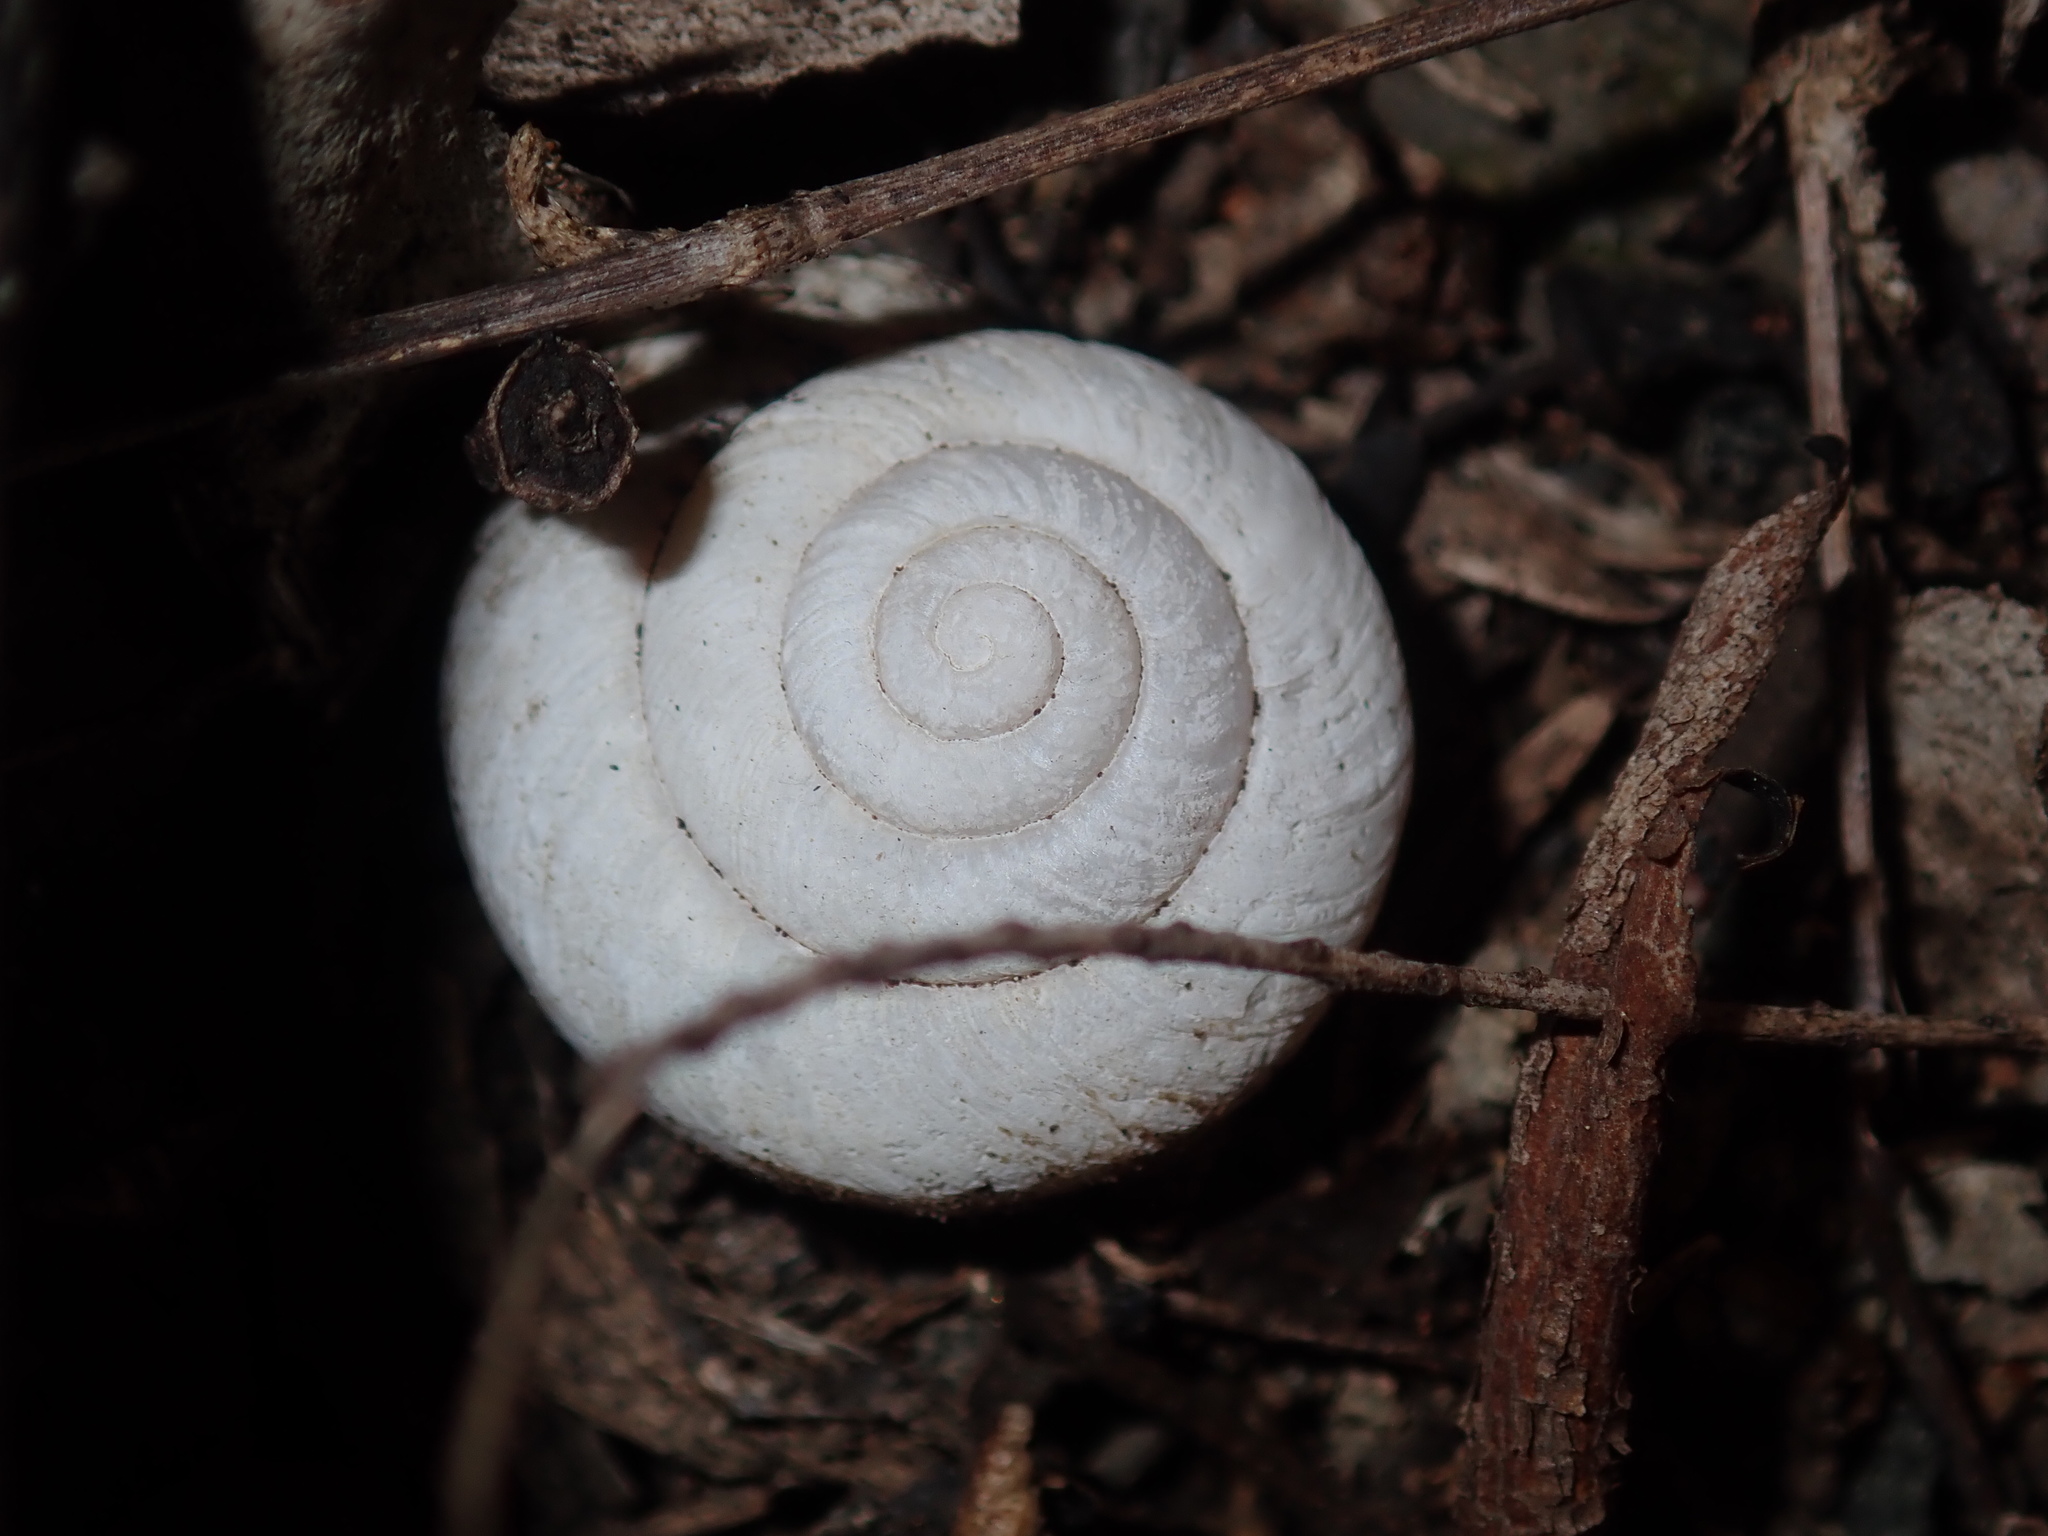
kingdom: Animalia
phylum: Mollusca
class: Gastropoda
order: Stylommatophora
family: Camaenidae
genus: Sauroconcha
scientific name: Sauroconcha sheai
